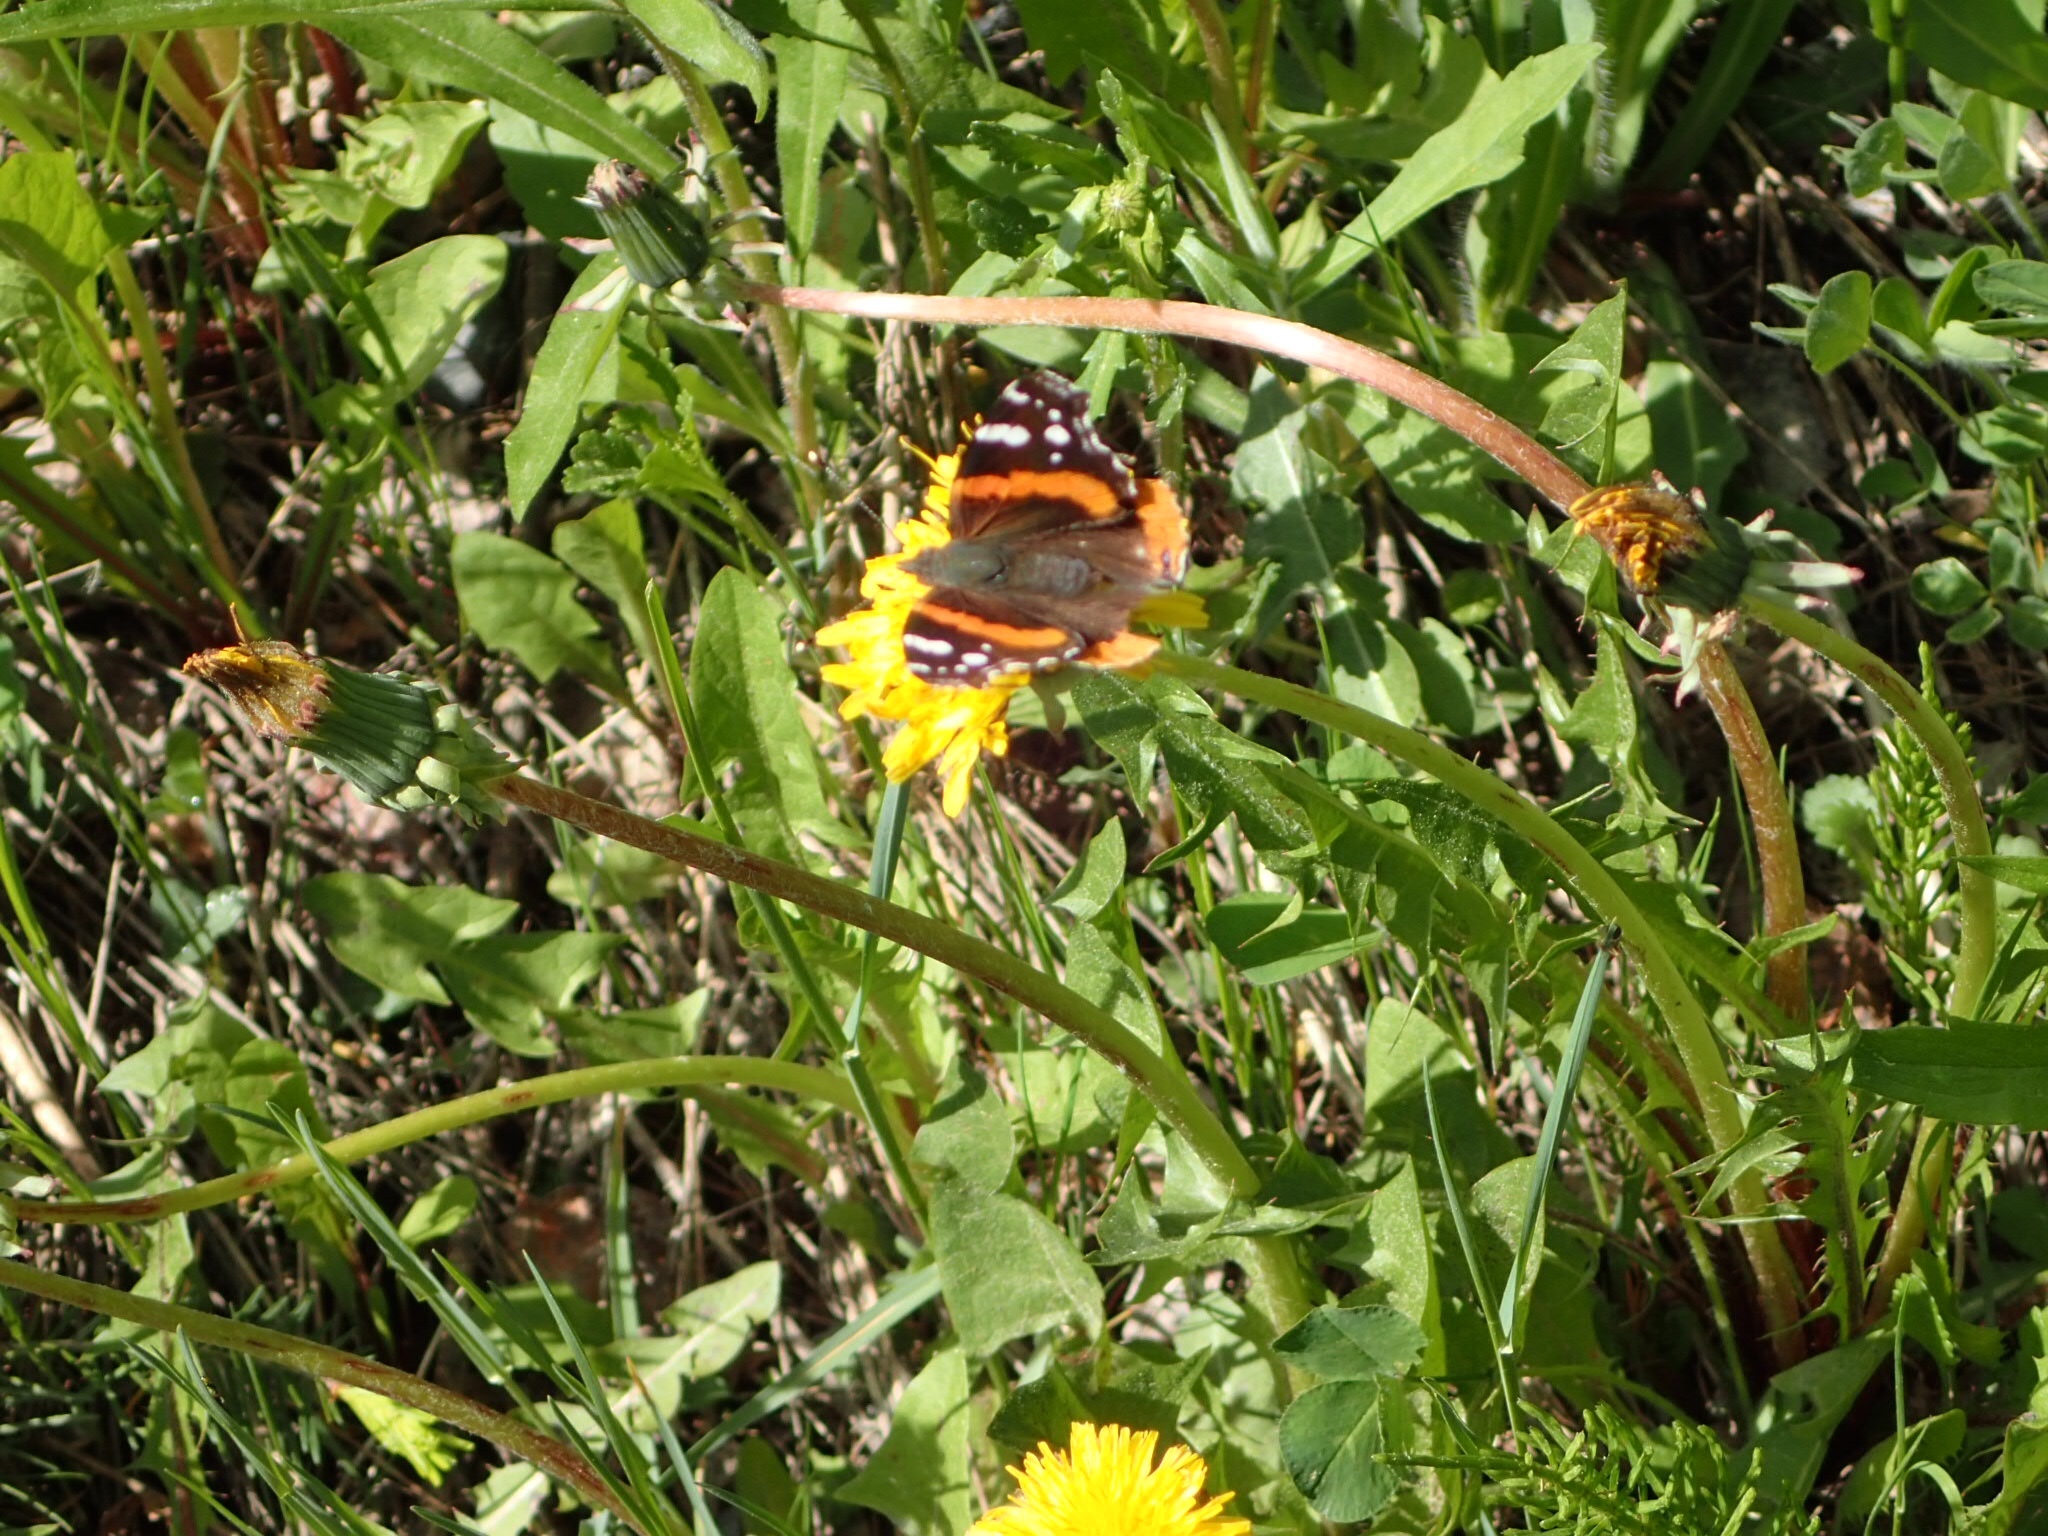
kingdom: Animalia
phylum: Arthropoda
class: Insecta
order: Lepidoptera
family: Nymphalidae
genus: Vanessa
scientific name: Vanessa atalanta
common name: Red admiral
